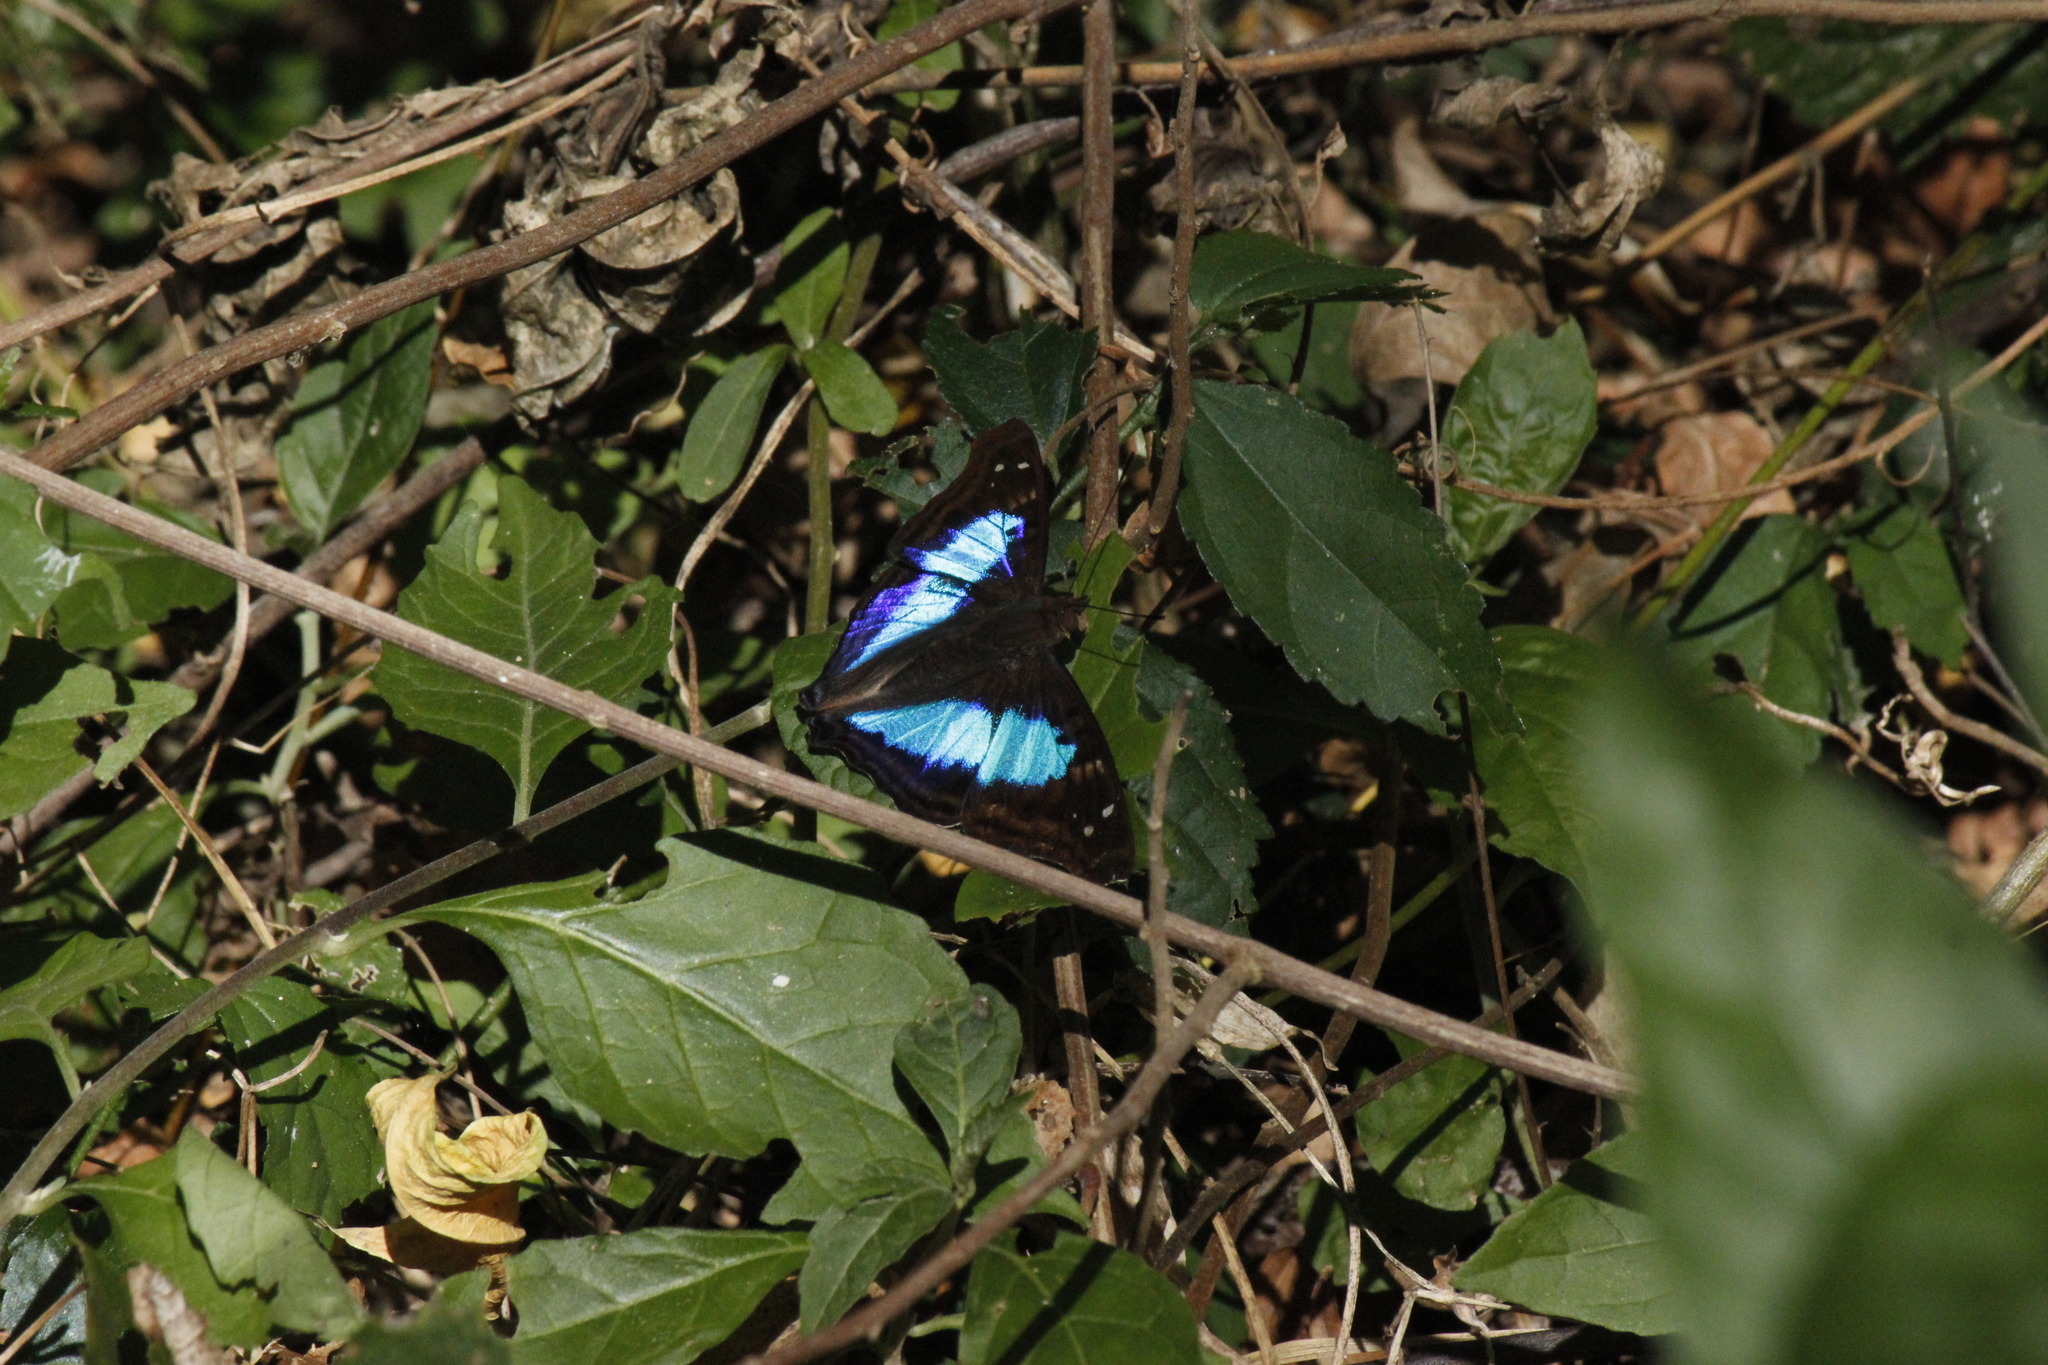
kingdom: Animalia
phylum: Arthropoda
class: Insecta
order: Lepidoptera
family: Nymphalidae
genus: Doxocopa
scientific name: Doxocopa laurentia
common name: Turquoise emperor
